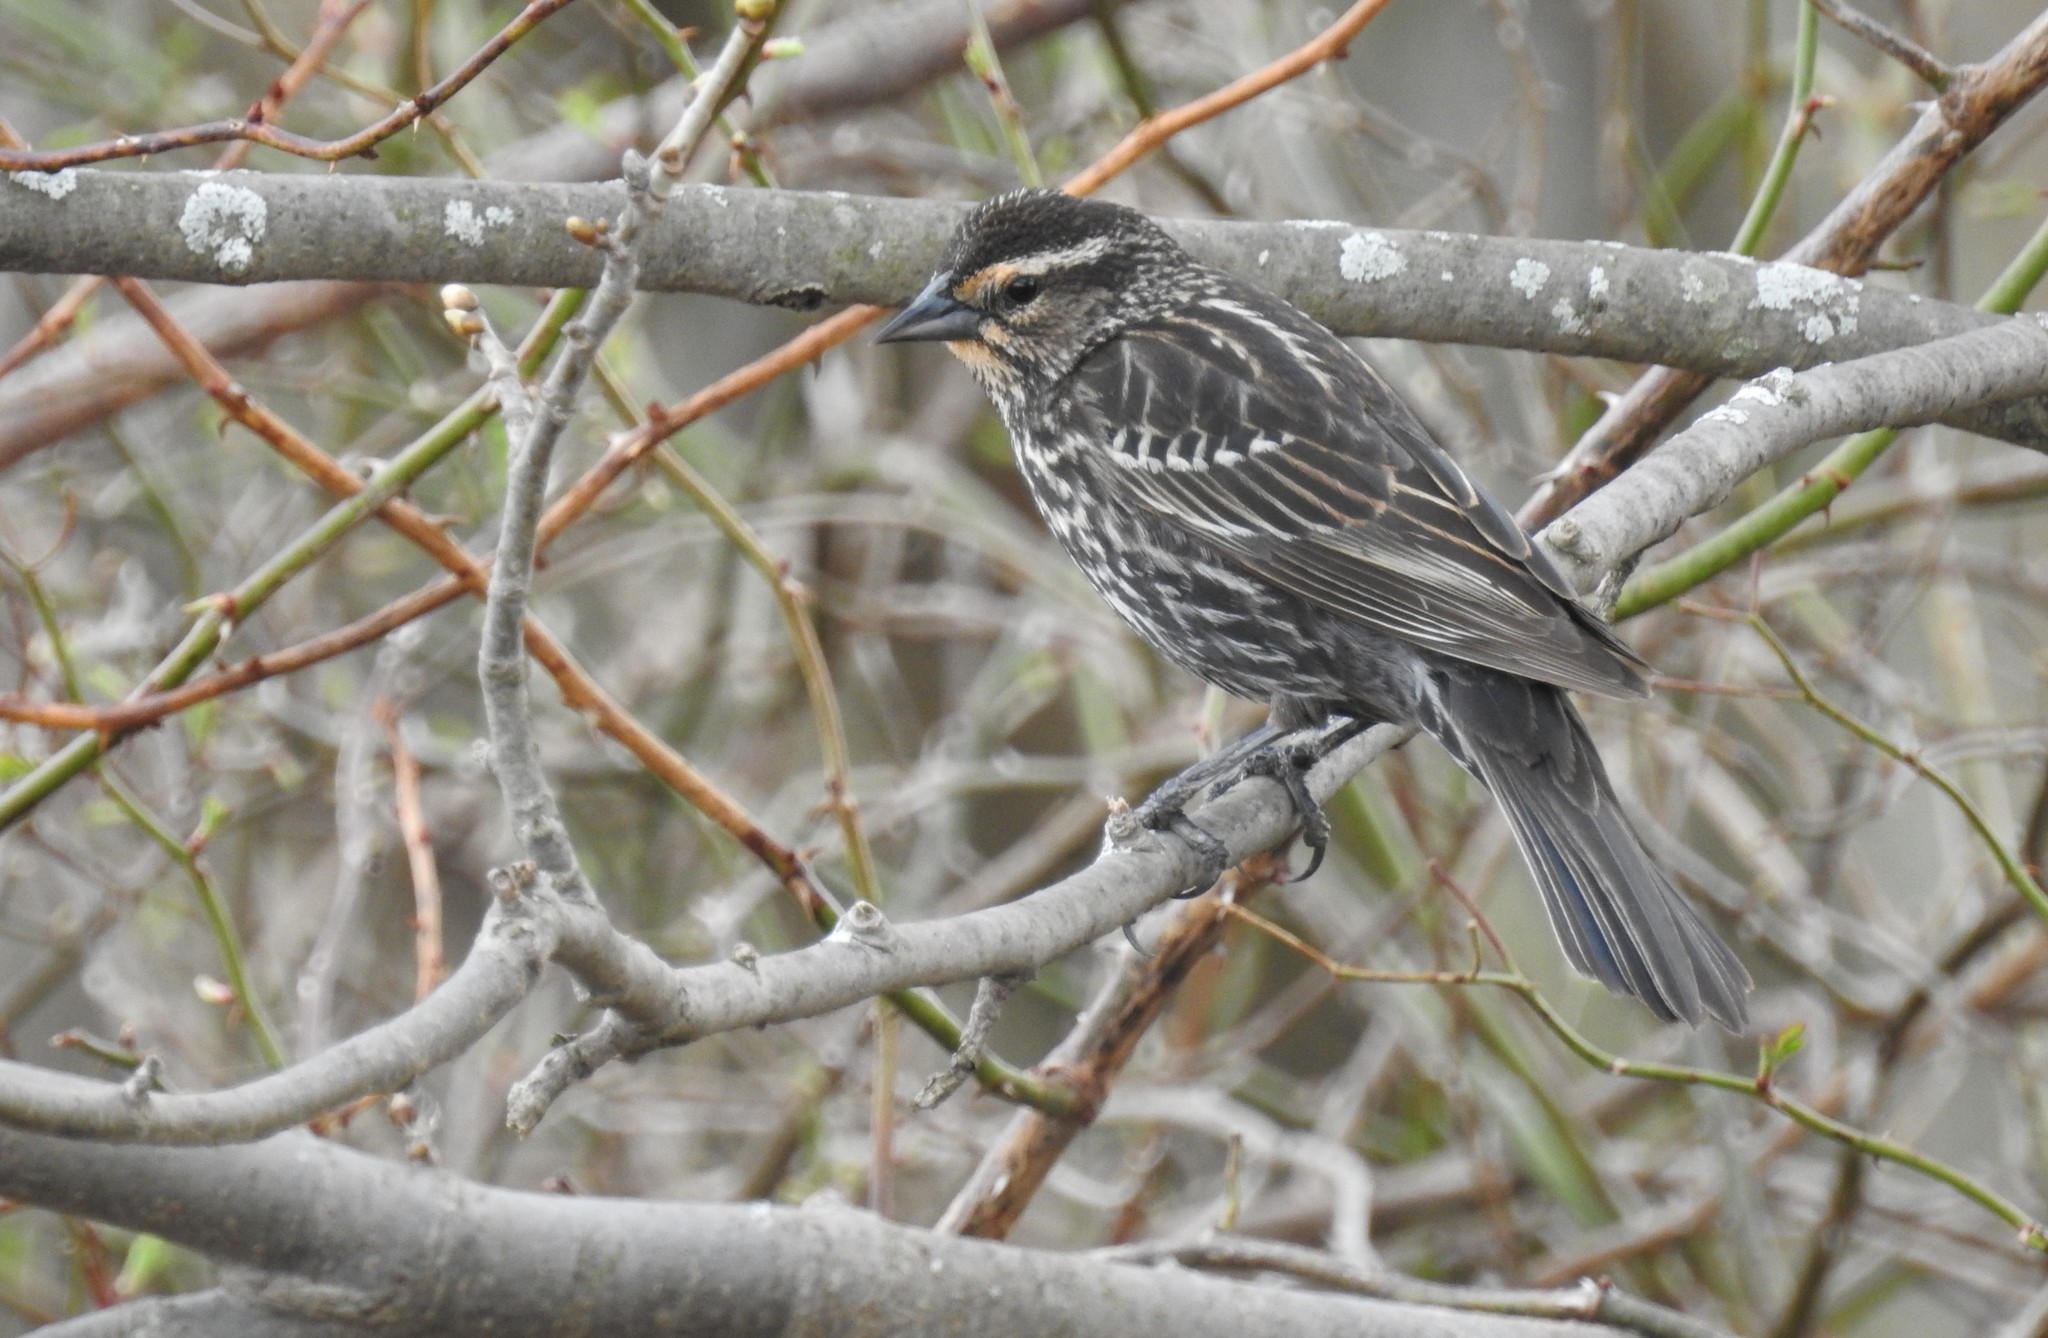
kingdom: Animalia
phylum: Chordata
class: Aves
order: Passeriformes
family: Icteridae
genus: Agelaius
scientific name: Agelaius phoeniceus
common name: Red-winged blackbird
